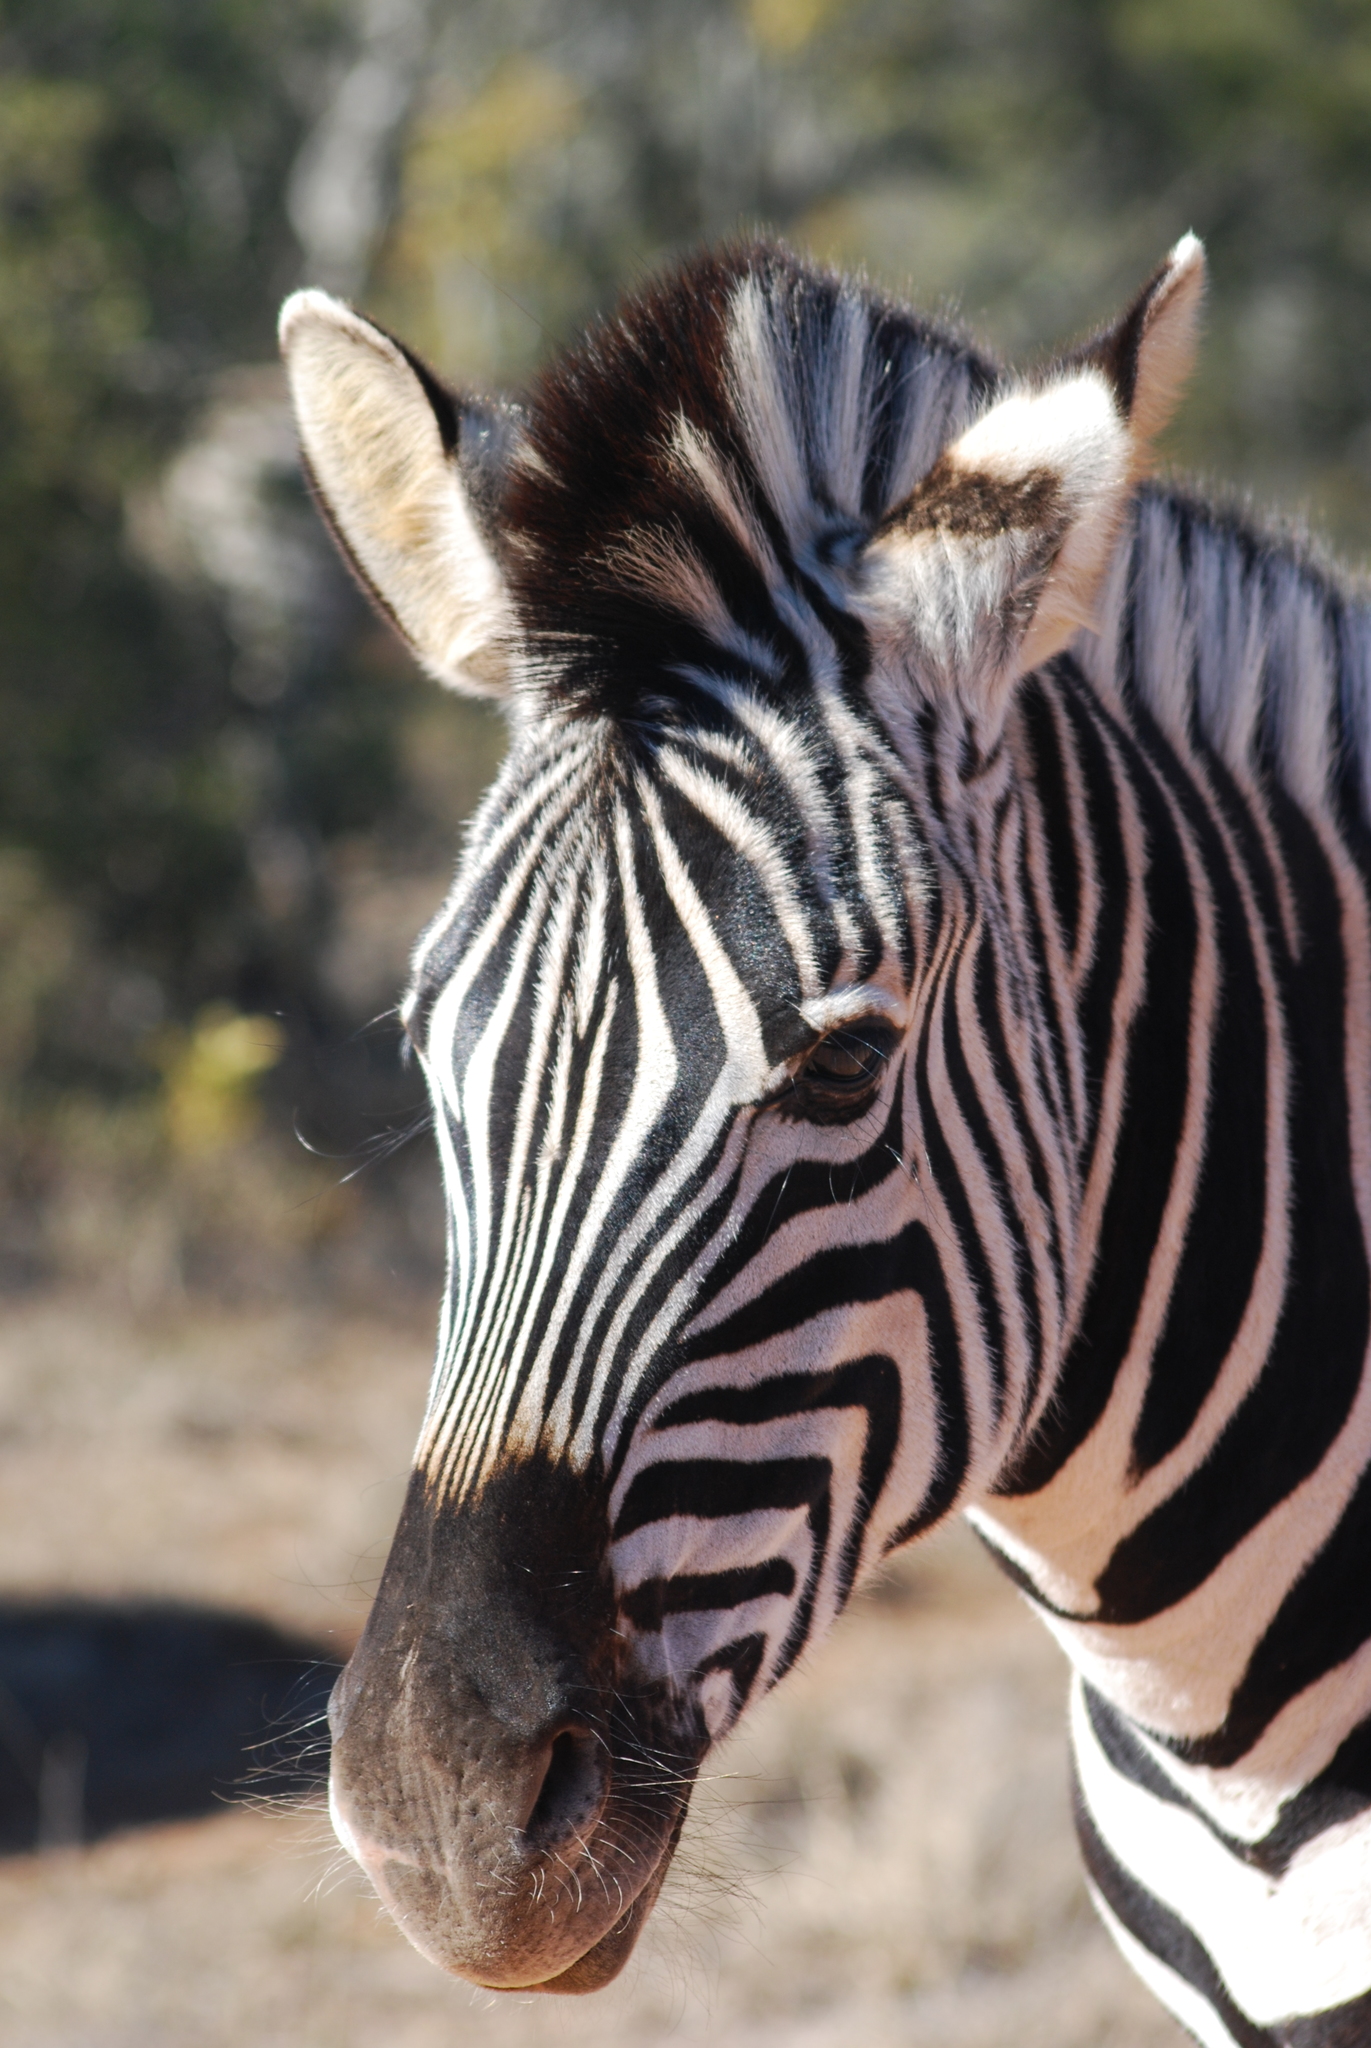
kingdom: Animalia
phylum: Chordata
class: Mammalia
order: Perissodactyla
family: Equidae
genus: Equus
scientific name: Equus quagga
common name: Plains zebra
